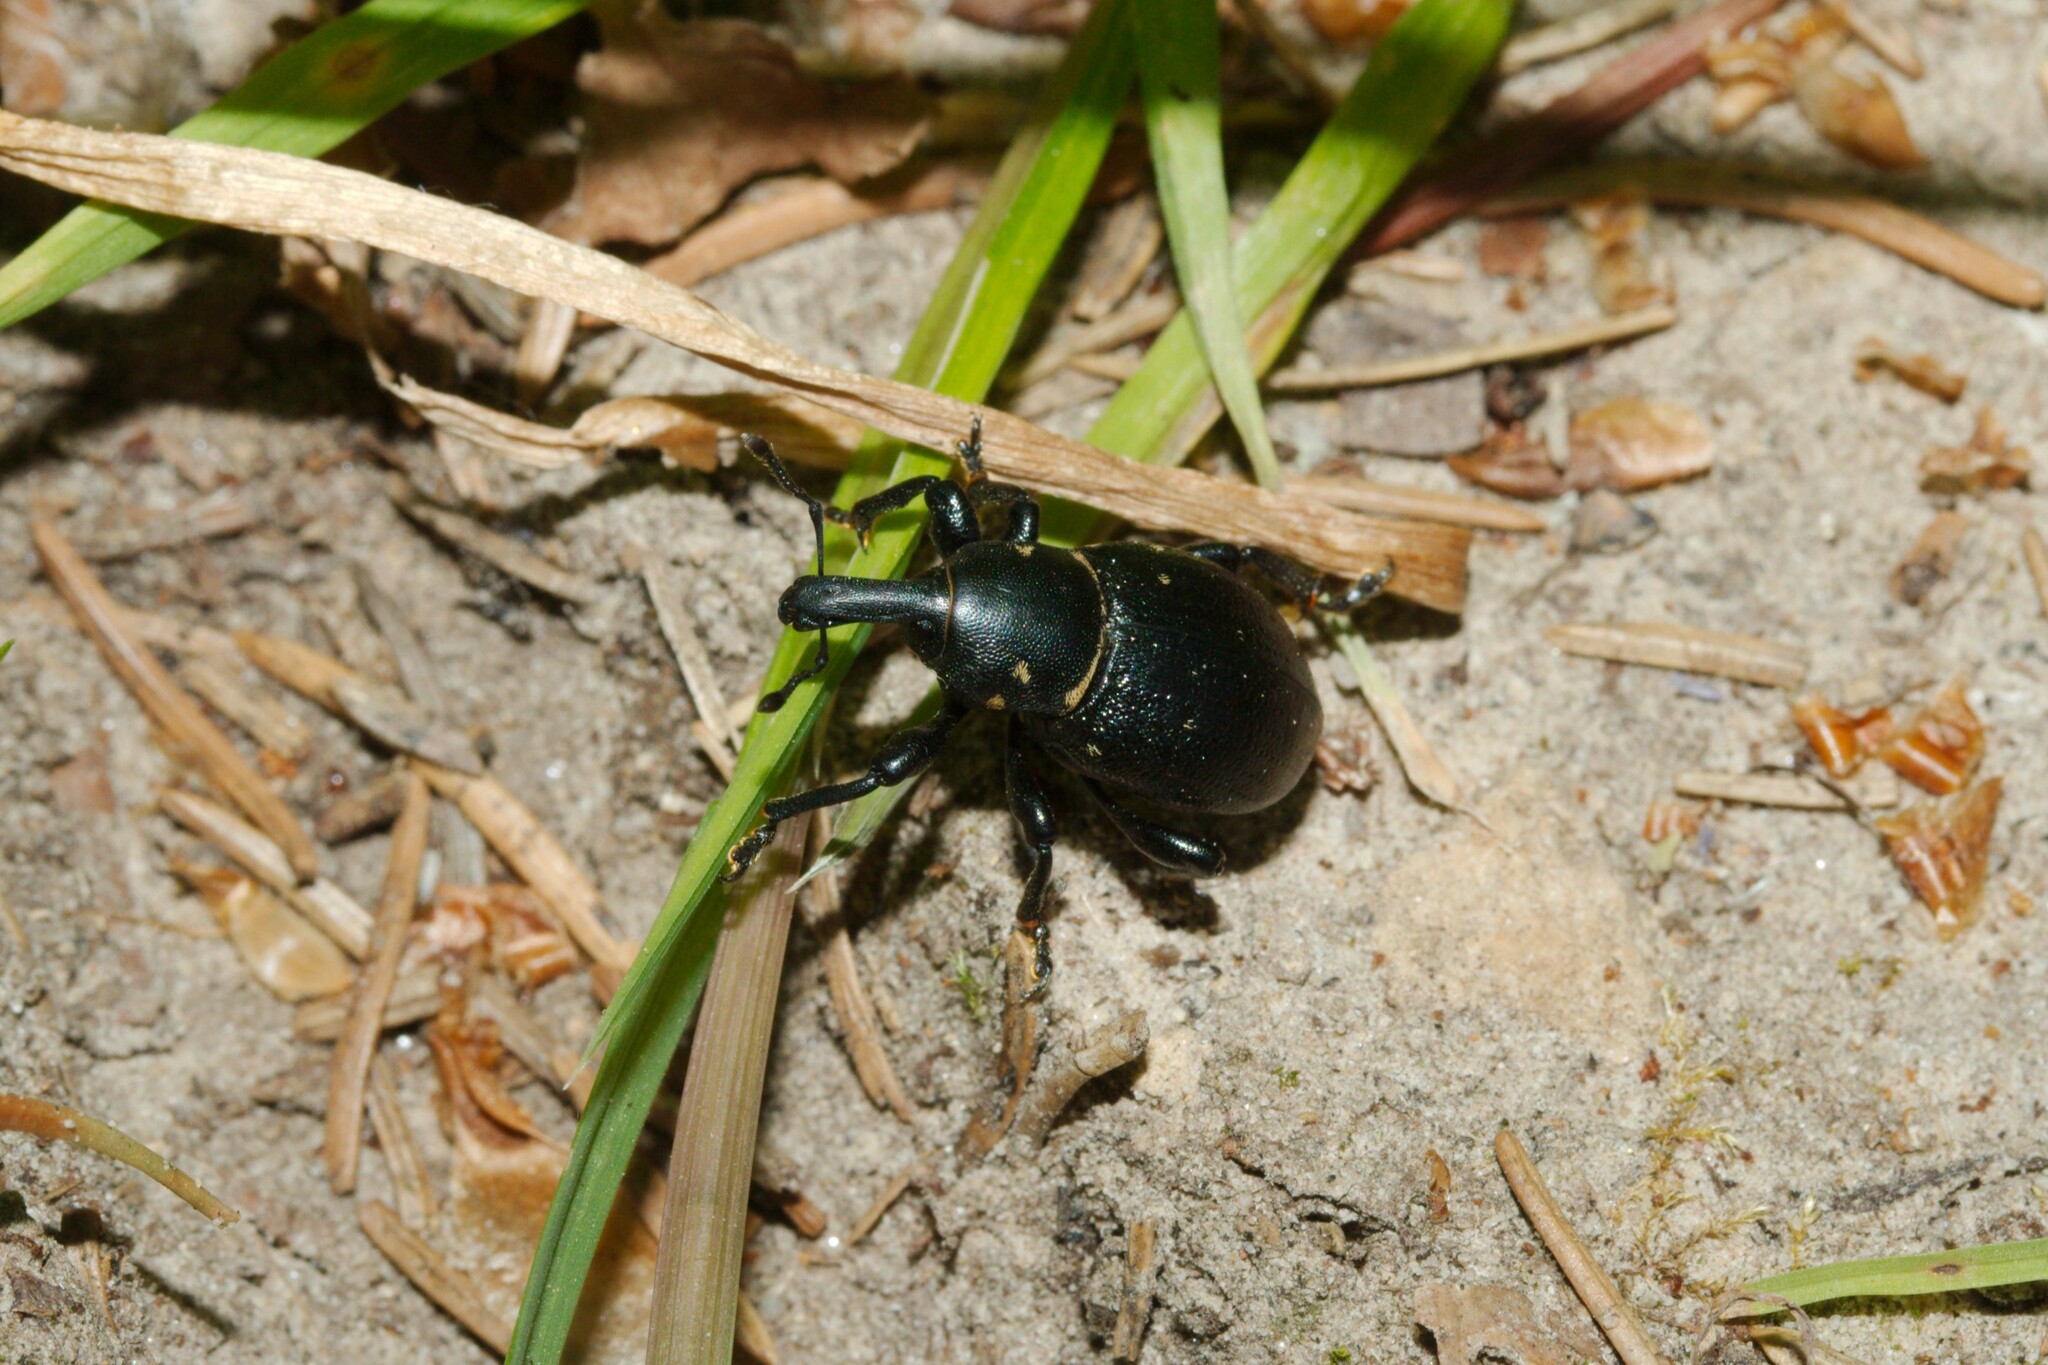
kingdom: Animalia
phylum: Arthropoda
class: Insecta
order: Coleoptera
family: Curculionidae
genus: Liparus
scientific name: Liparus coronatus
